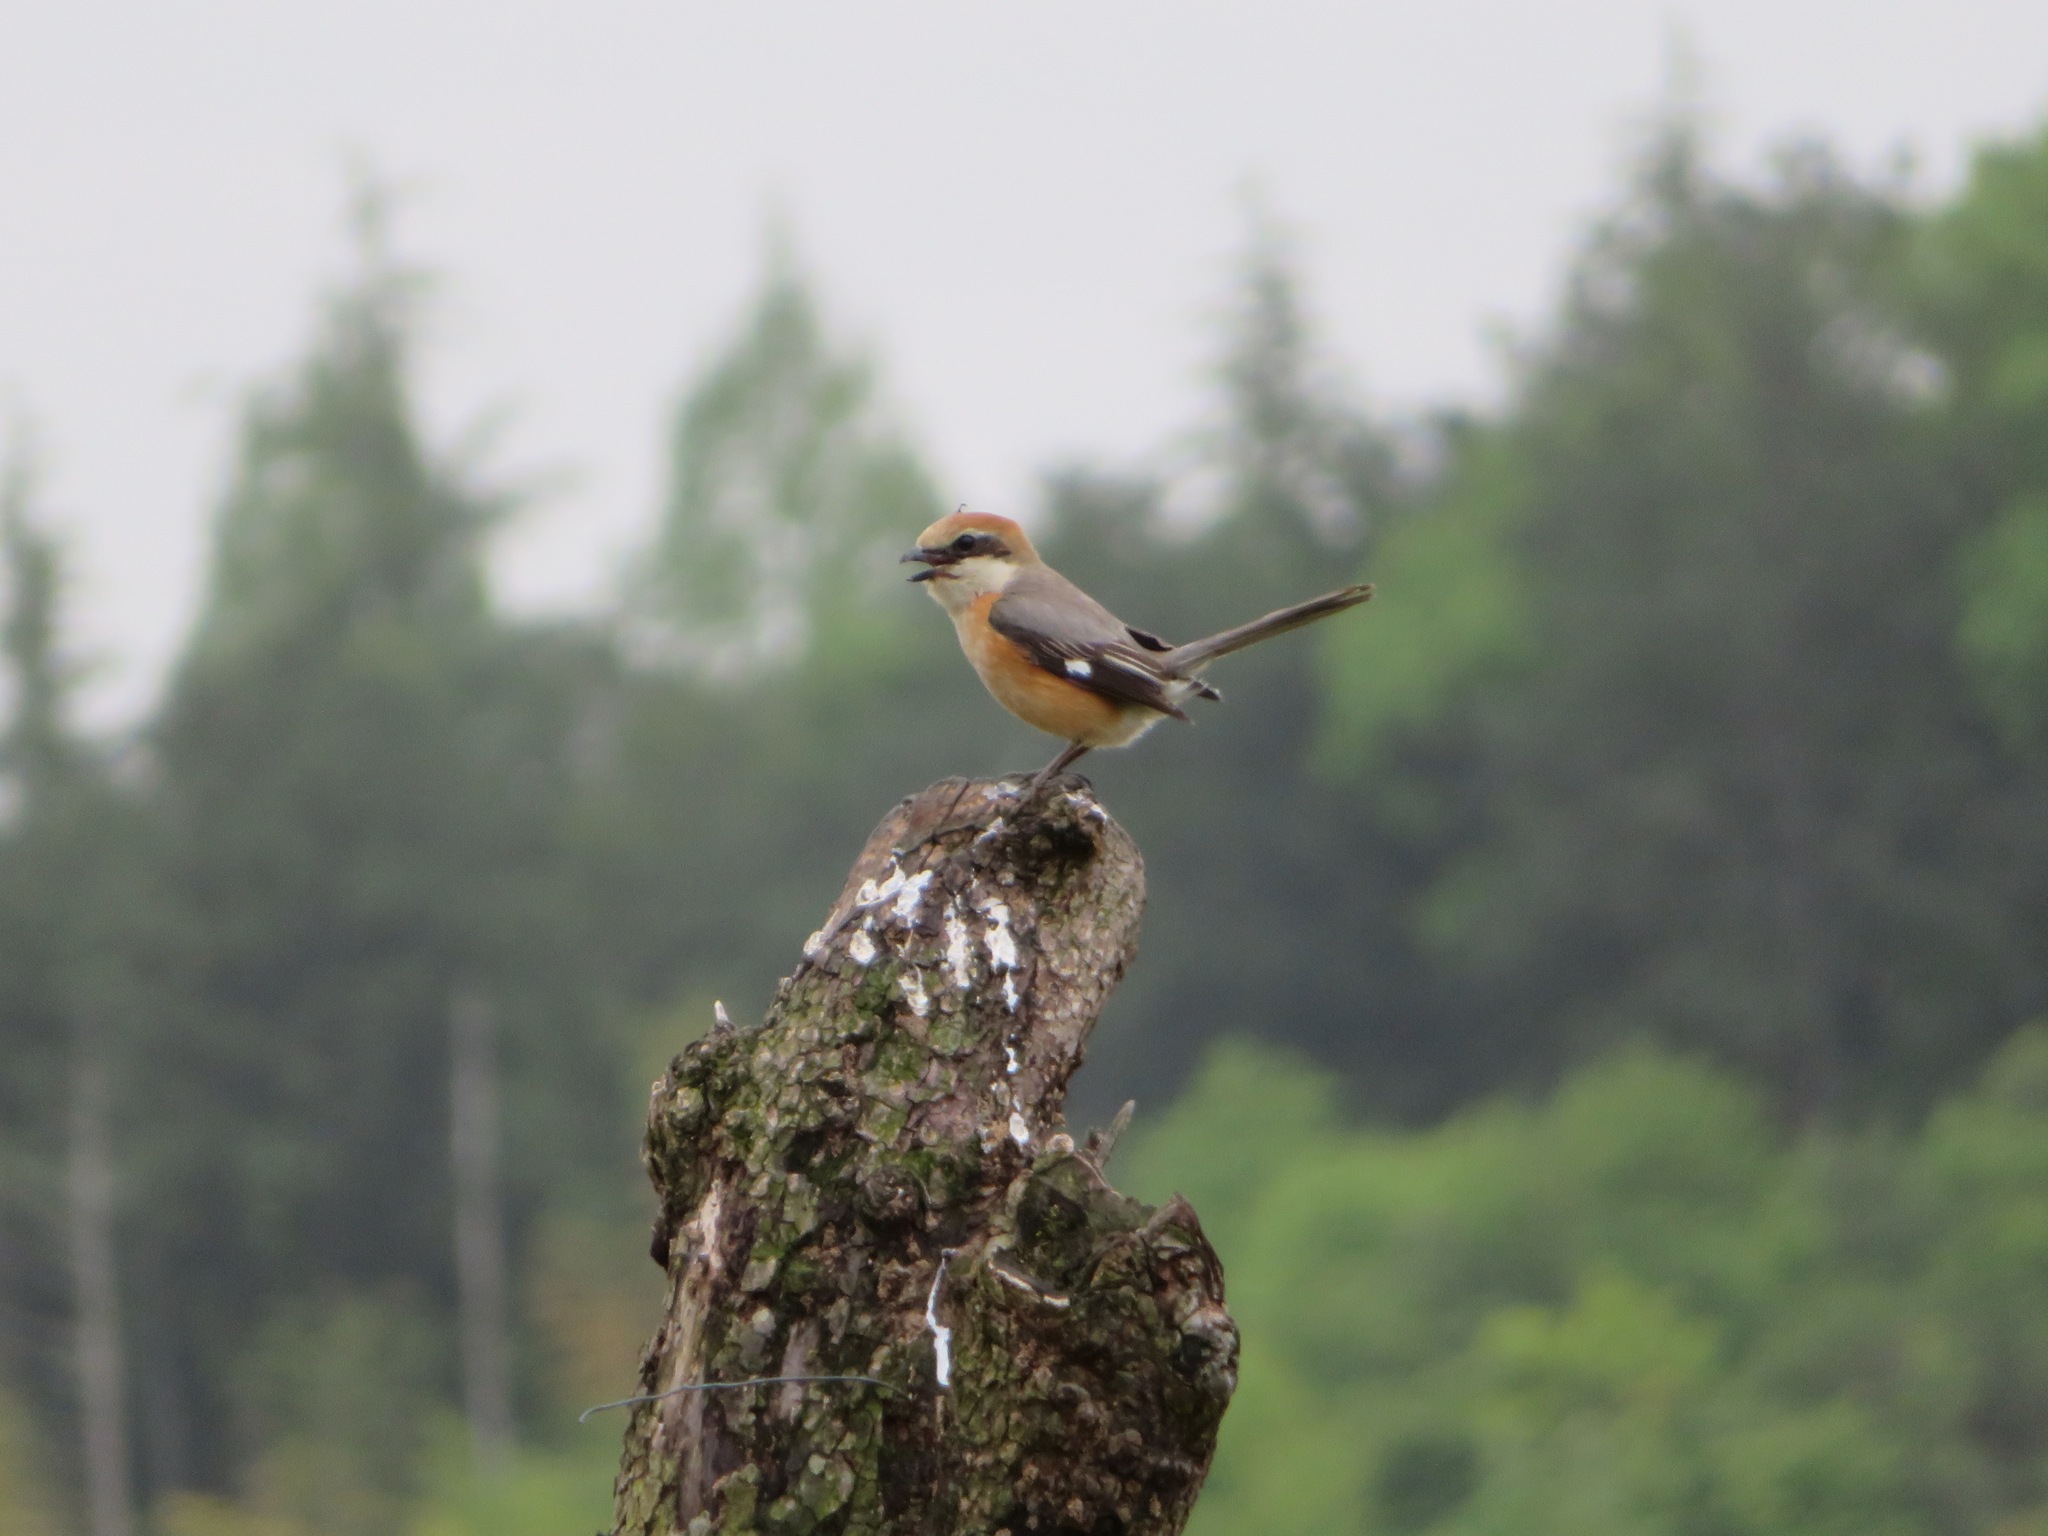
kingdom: Animalia
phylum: Chordata
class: Aves
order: Passeriformes
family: Laniidae
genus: Lanius
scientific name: Lanius bucephalus
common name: Bull-headed shrike
